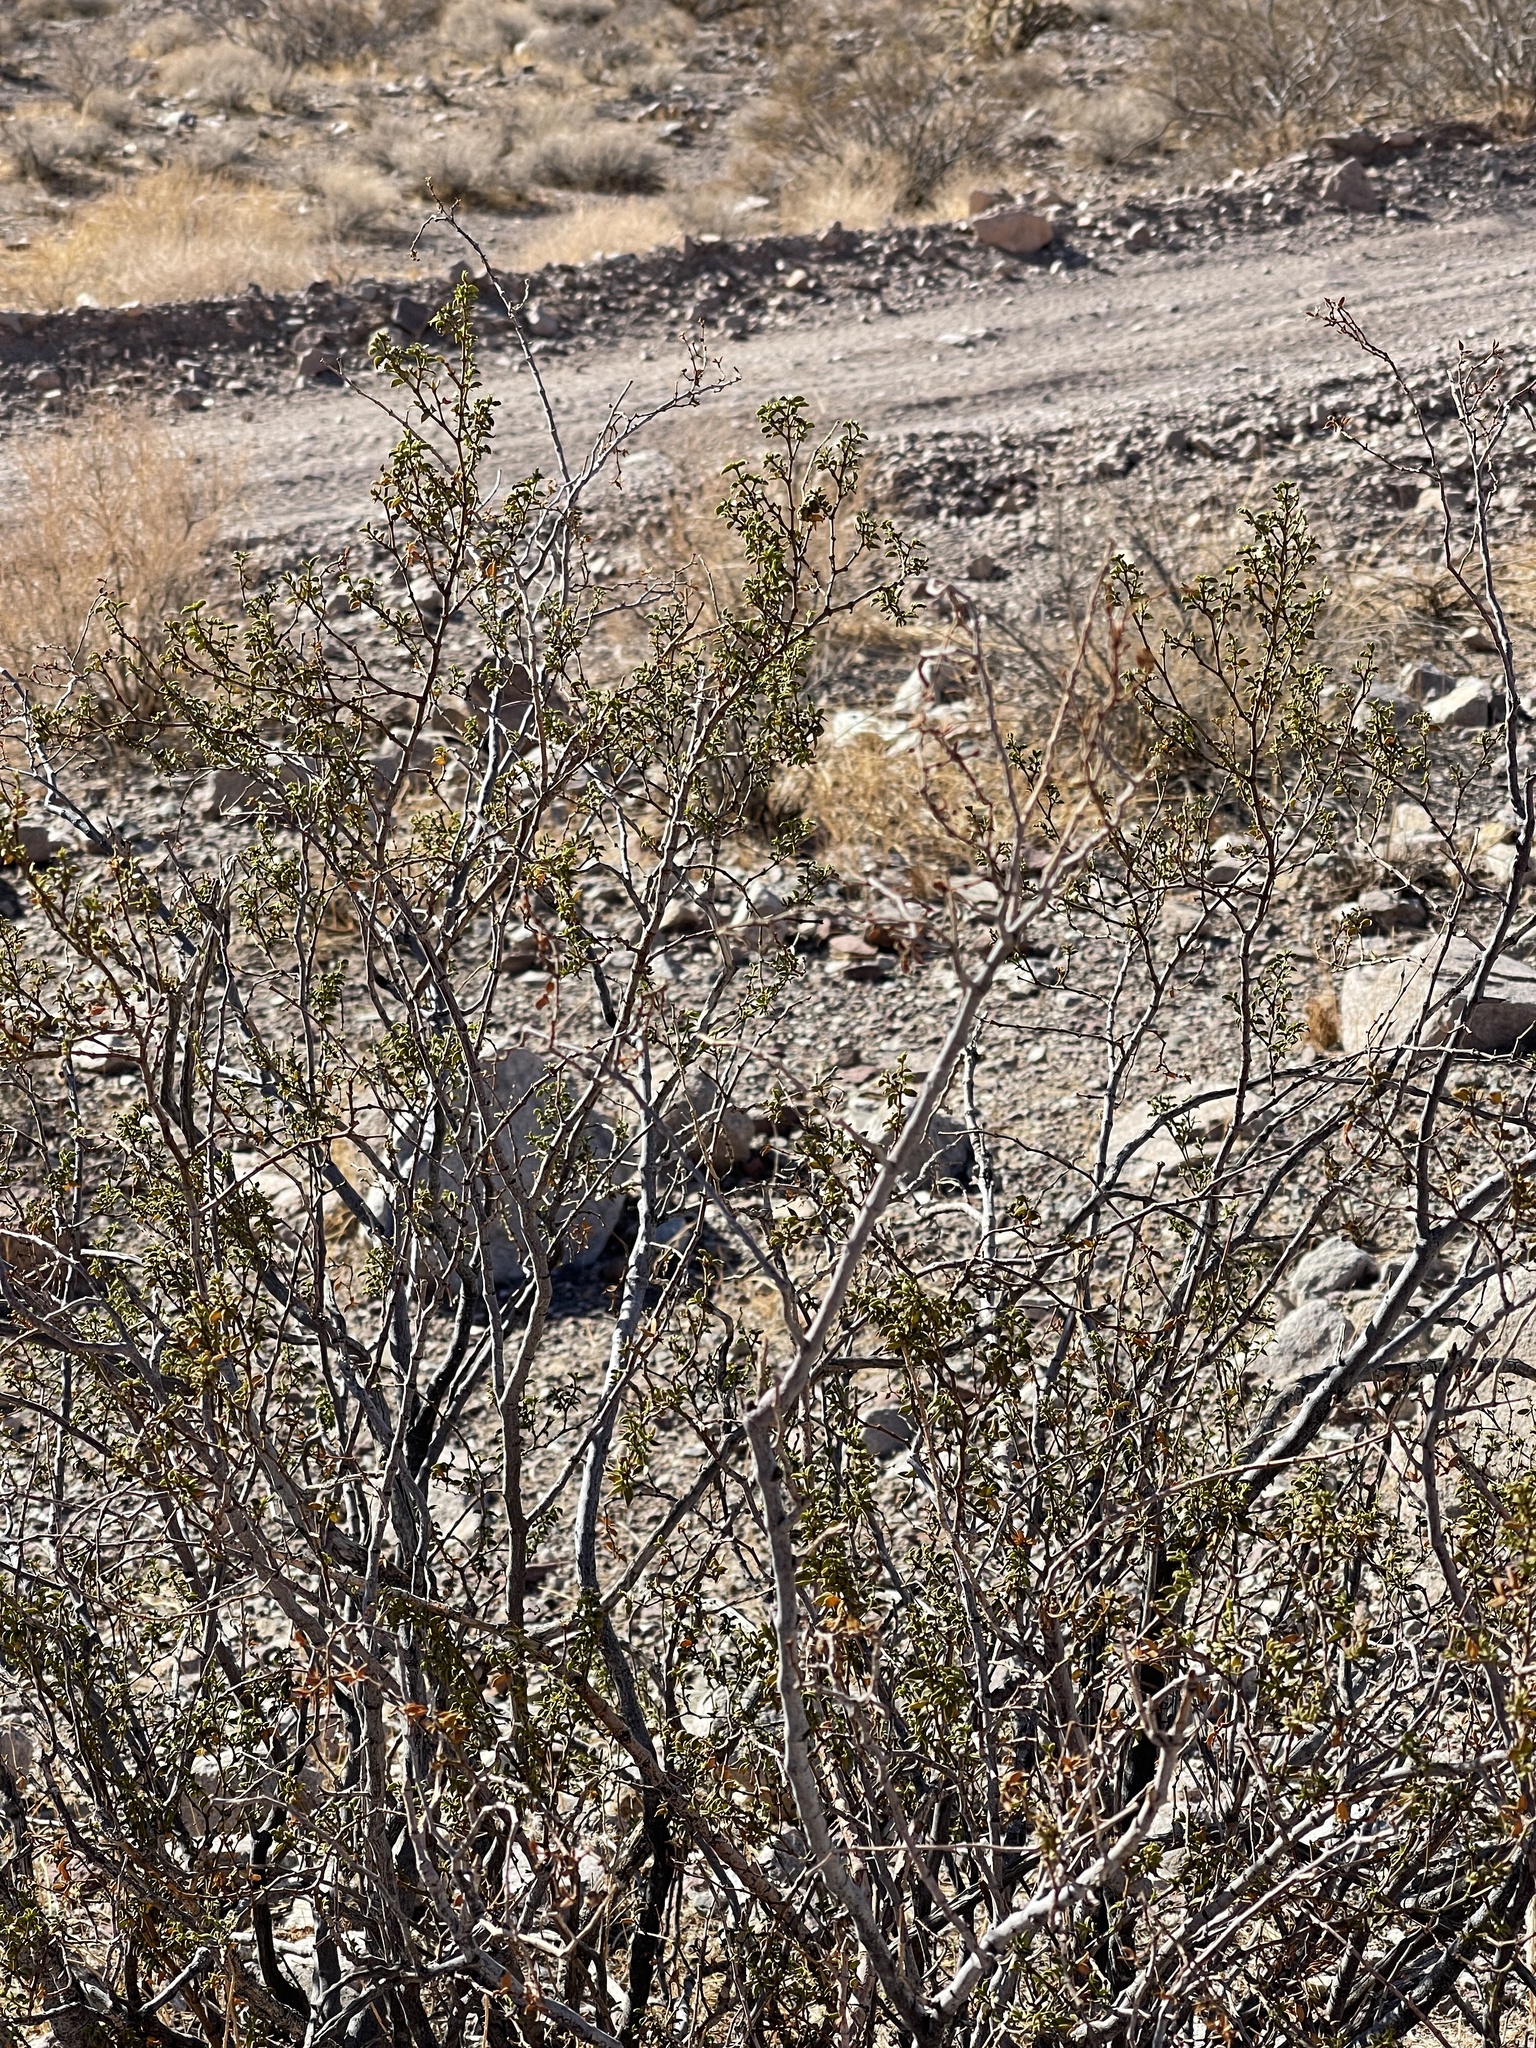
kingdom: Plantae
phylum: Tracheophyta
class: Magnoliopsida
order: Zygophyllales
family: Zygophyllaceae
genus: Larrea
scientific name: Larrea tridentata
